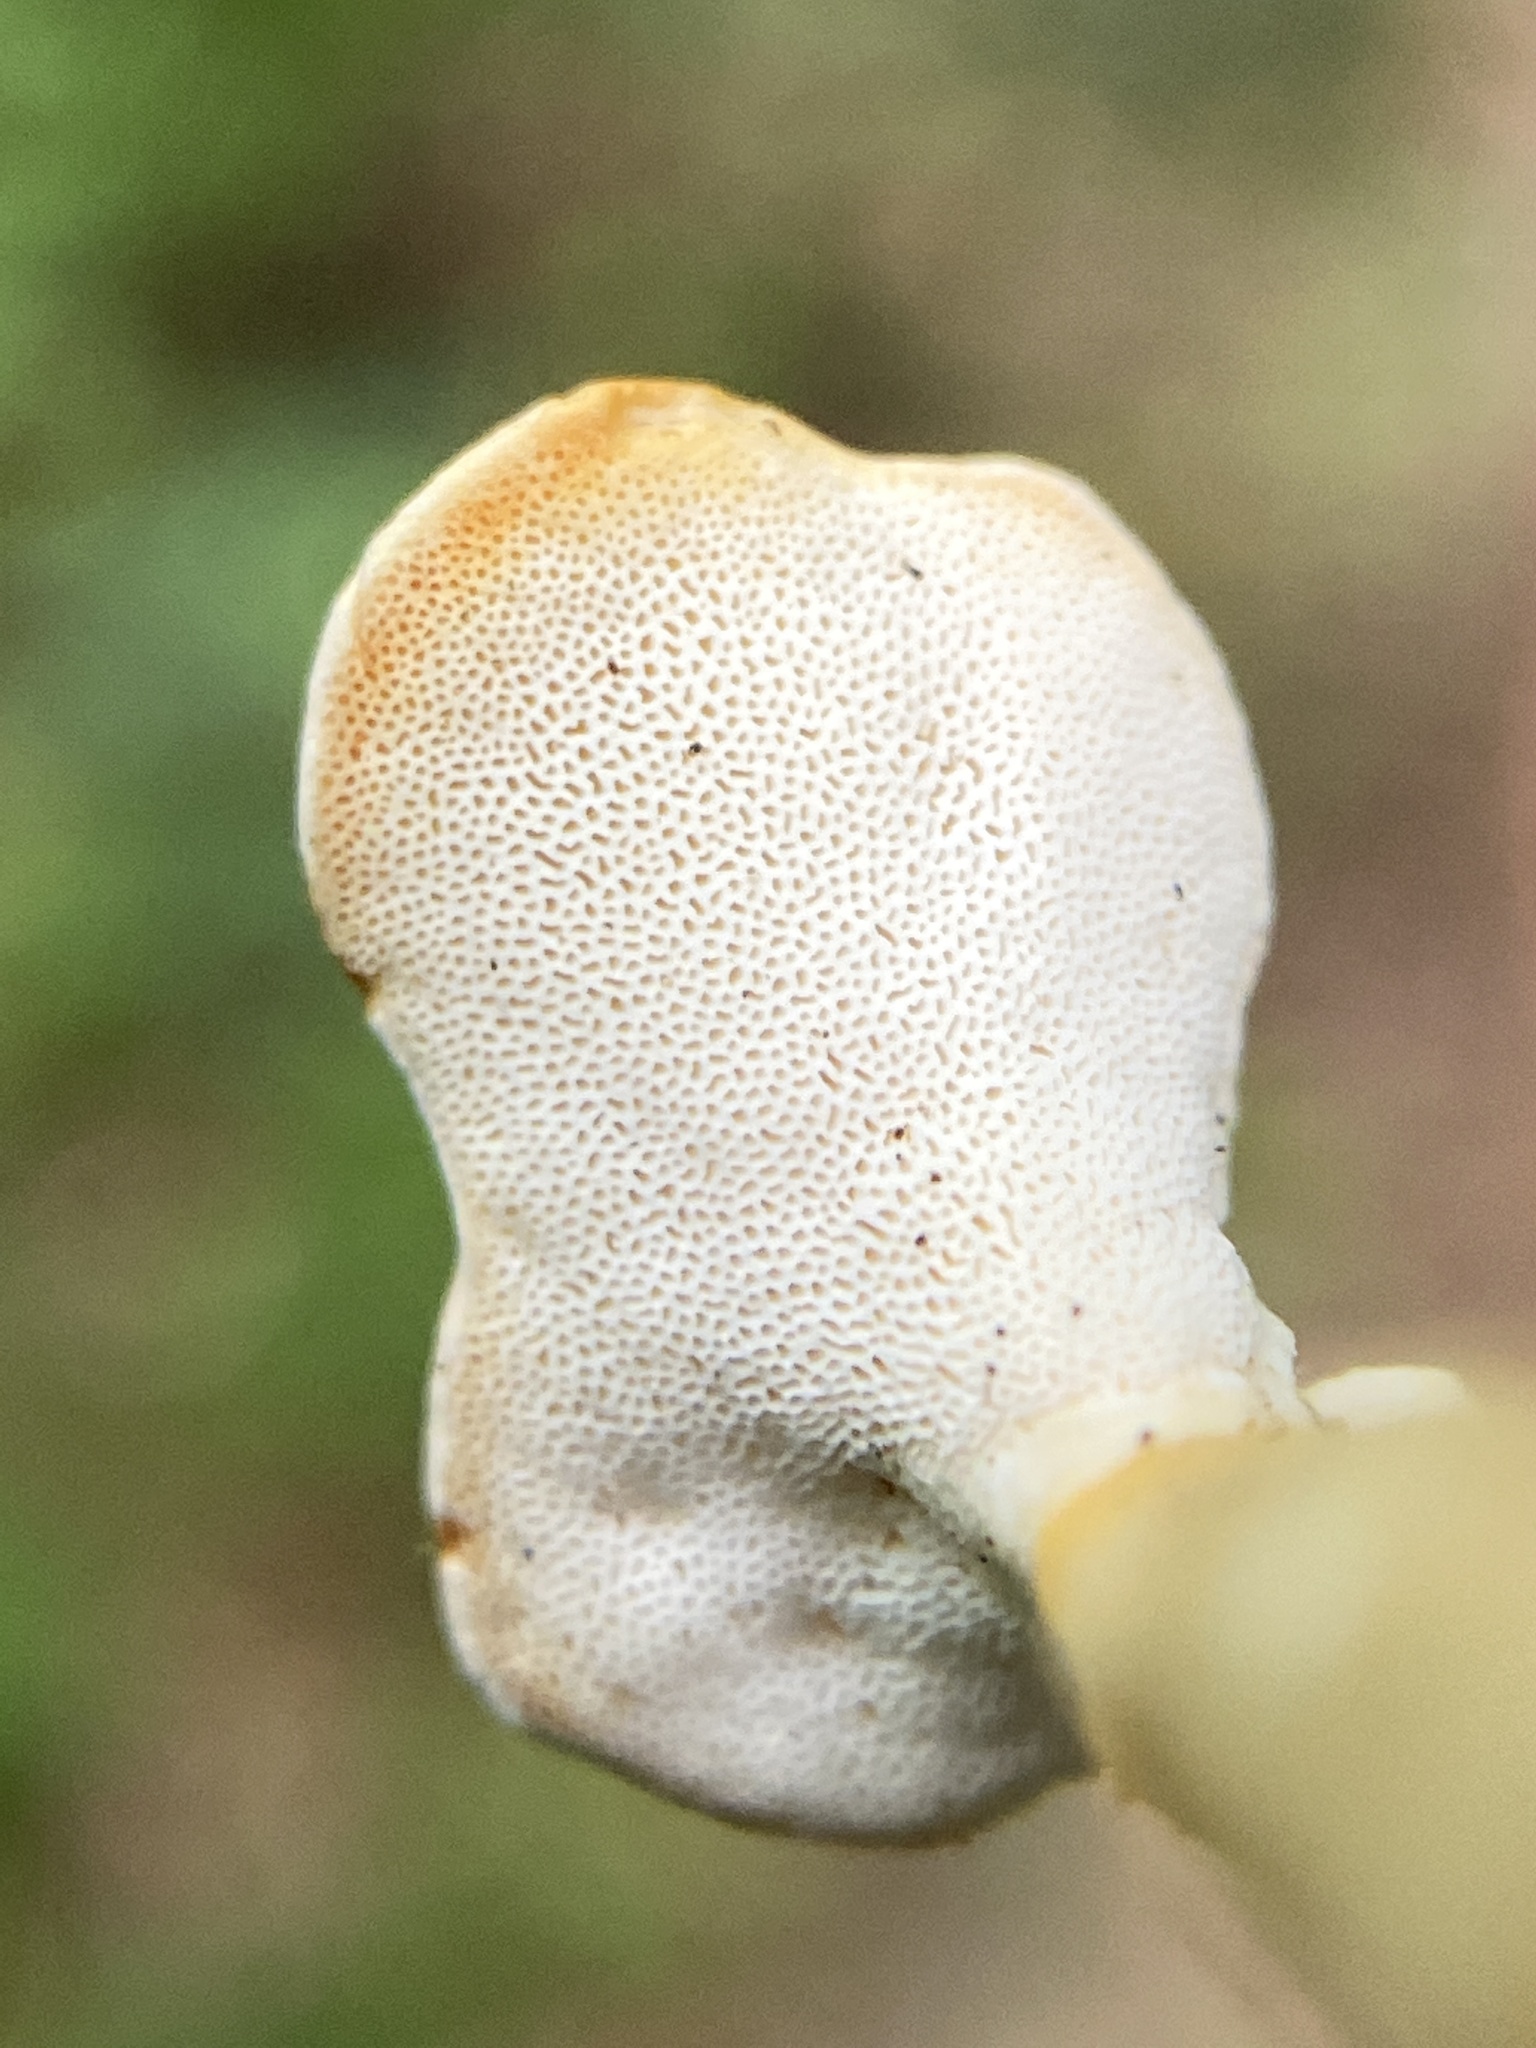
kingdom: Fungi
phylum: Basidiomycota
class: Agaricomycetes
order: Polyporales
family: Steccherinaceae
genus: Loweomyces
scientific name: Loweomyces fractipes
